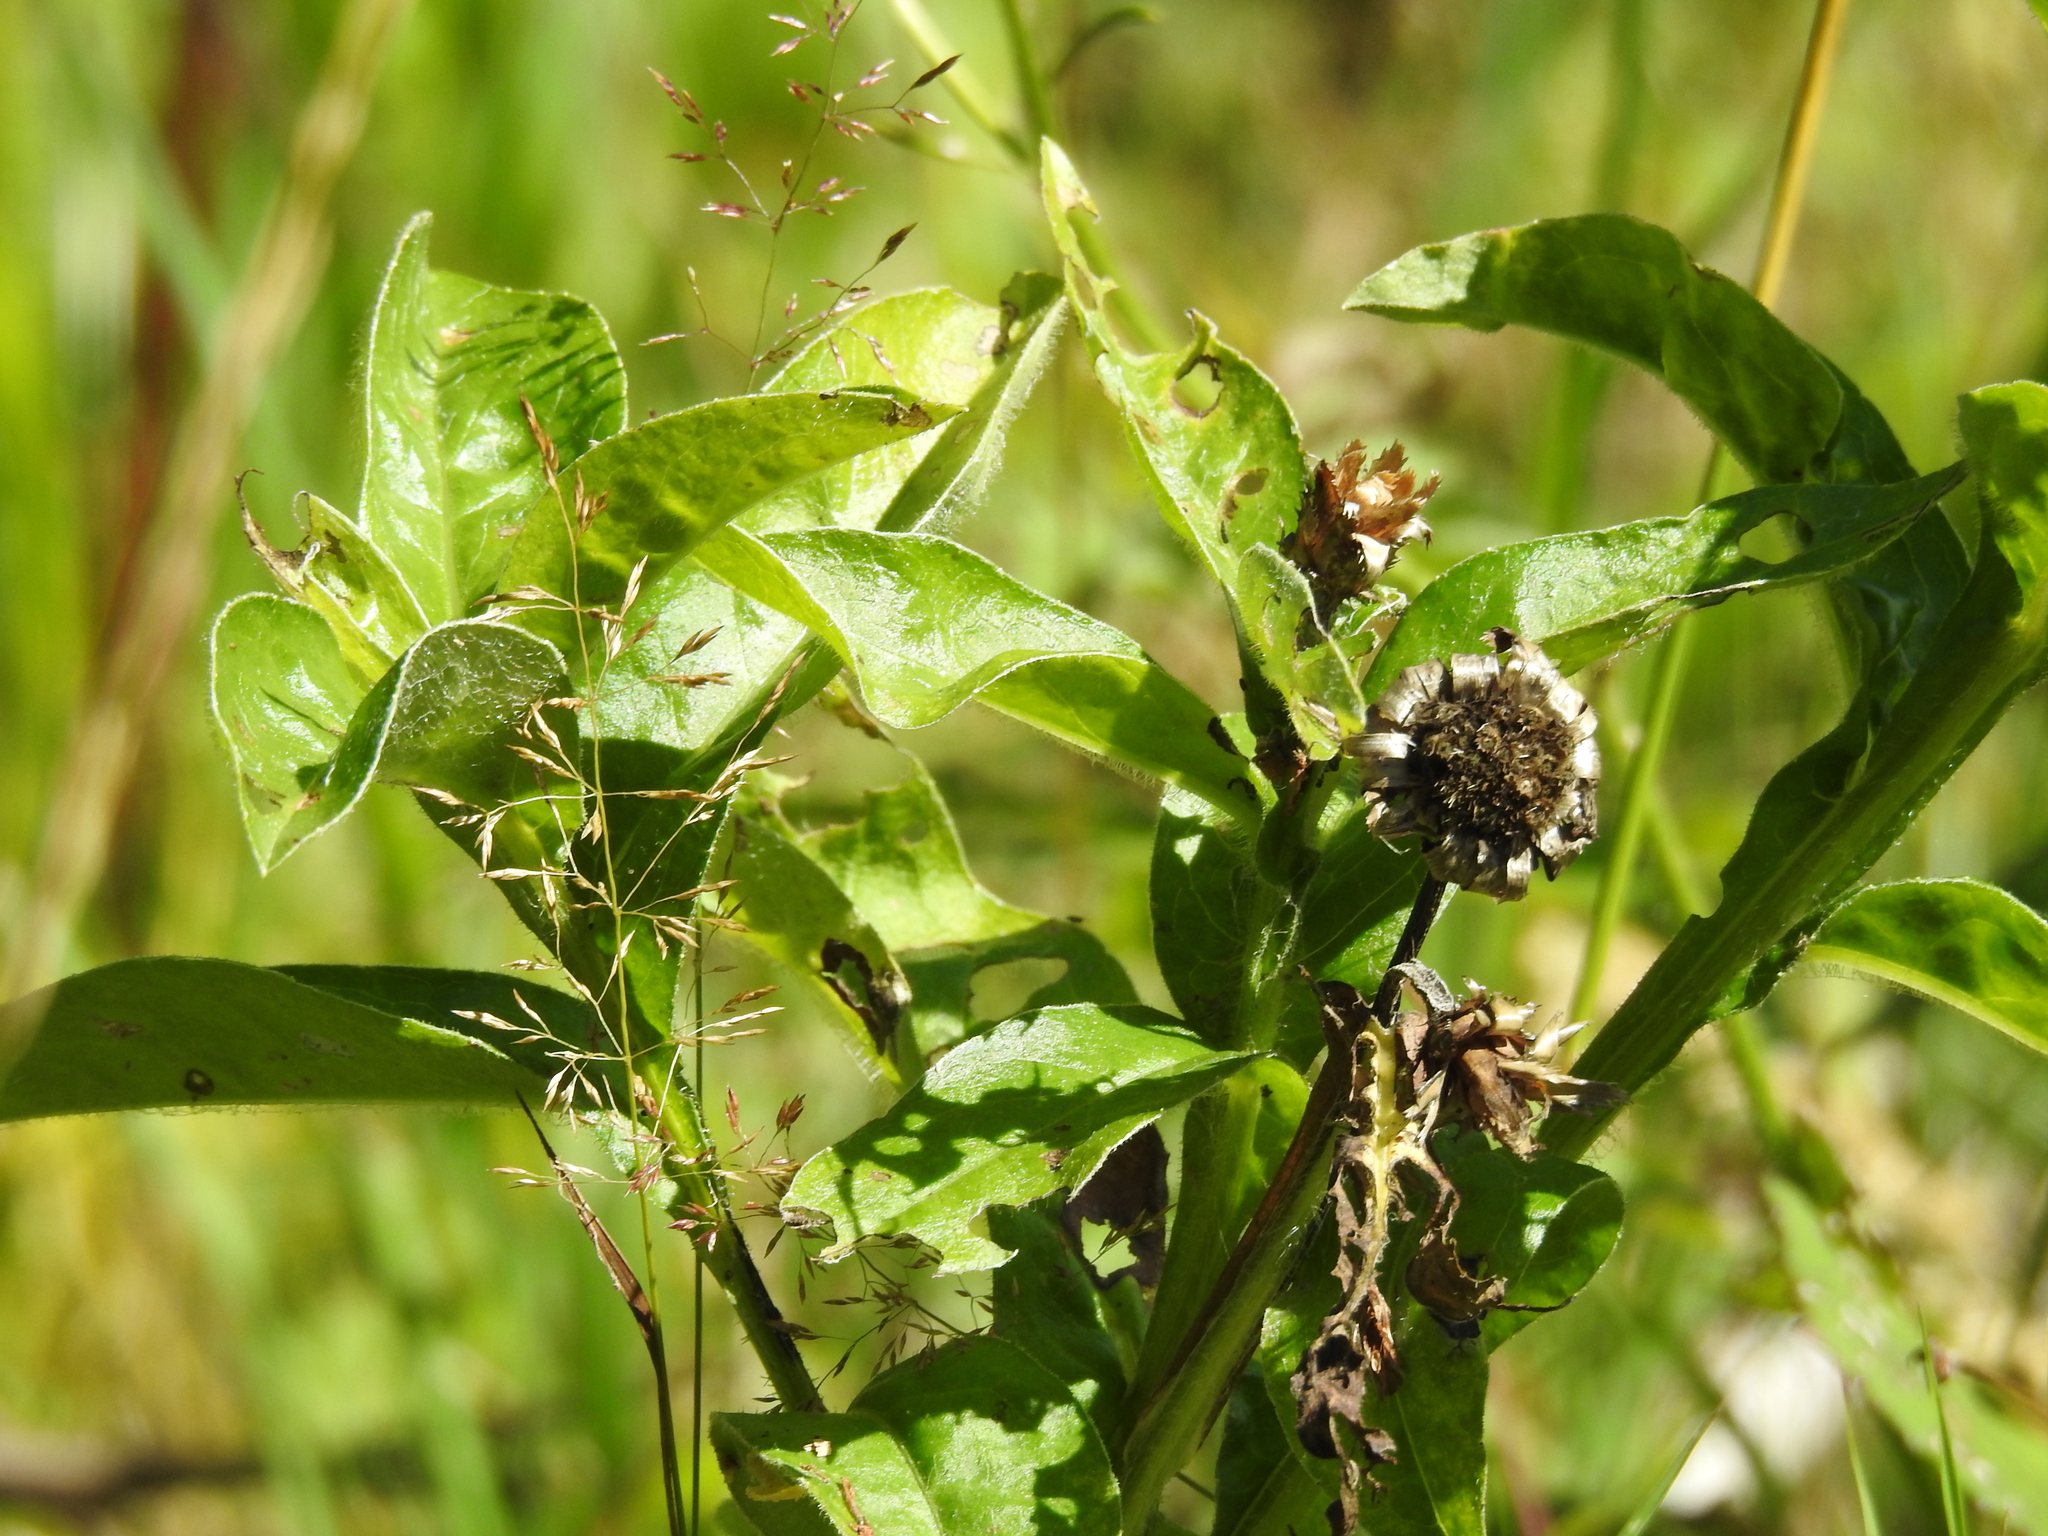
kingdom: Plantae
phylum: Tracheophyta
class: Magnoliopsida
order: Asterales
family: Asteraceae
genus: Centaurea
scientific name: Centaurea montana
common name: Perennial cornflower
